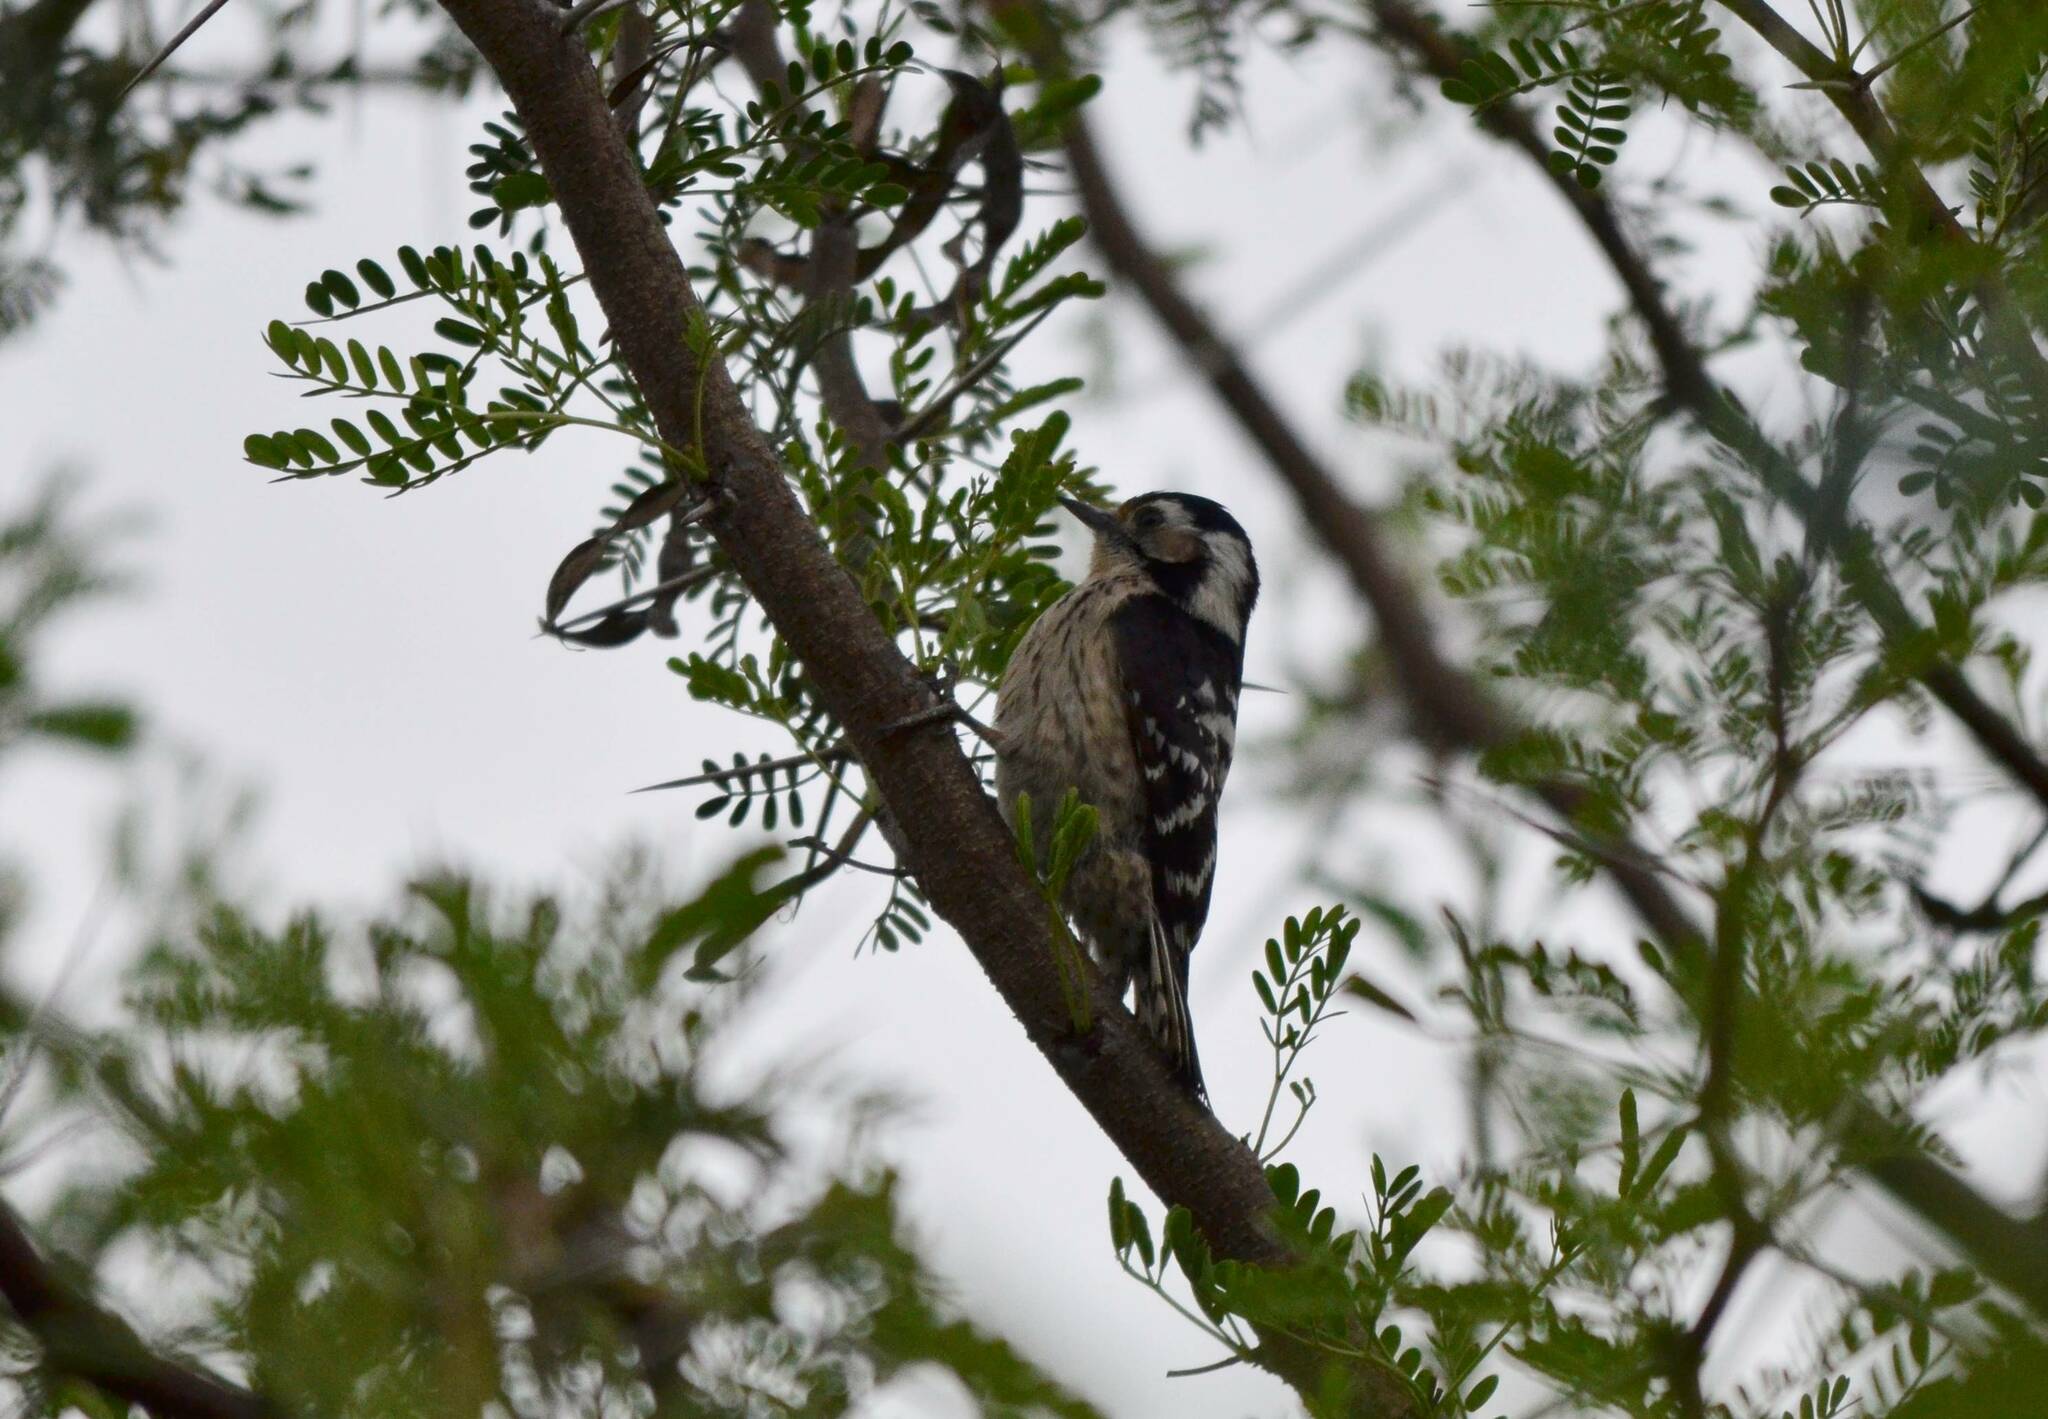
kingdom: Animalia
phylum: Chordata
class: Aves
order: Piciformes
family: Picidae
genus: Dryobates
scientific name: Dryobates minor
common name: Lesser spotted woodpecker
